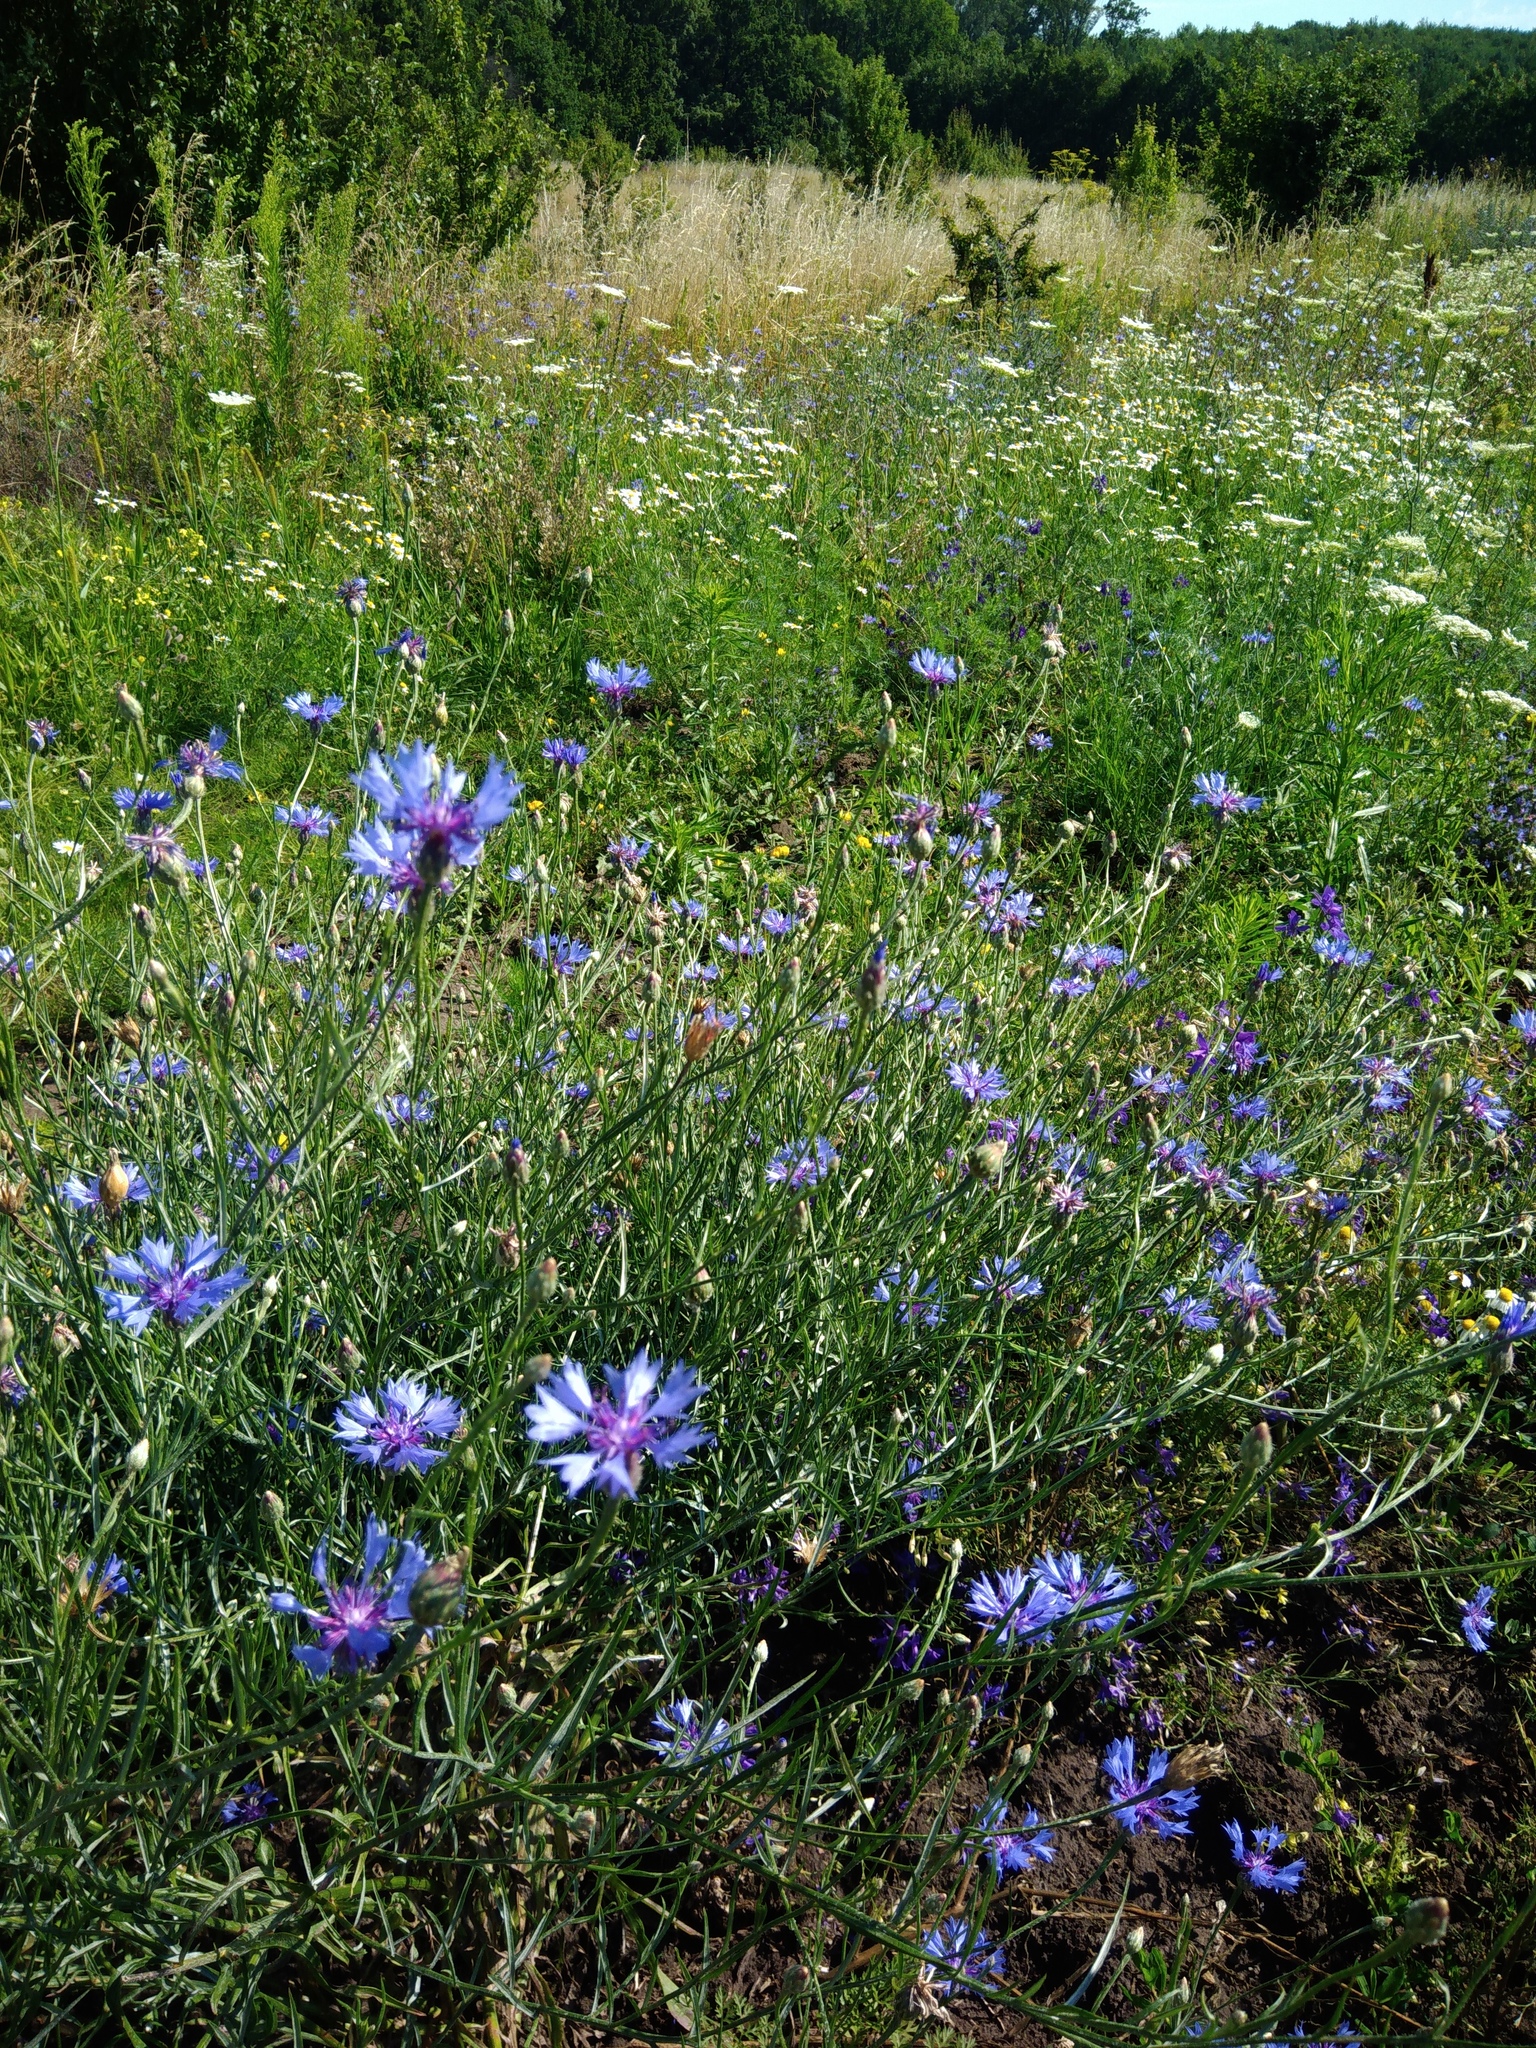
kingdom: Plantae
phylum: Tracheophyta
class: Magnoliopsida
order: Asterales
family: Asteraceae
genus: Centaurea
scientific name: Centaurea cyanus
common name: Cornflower
